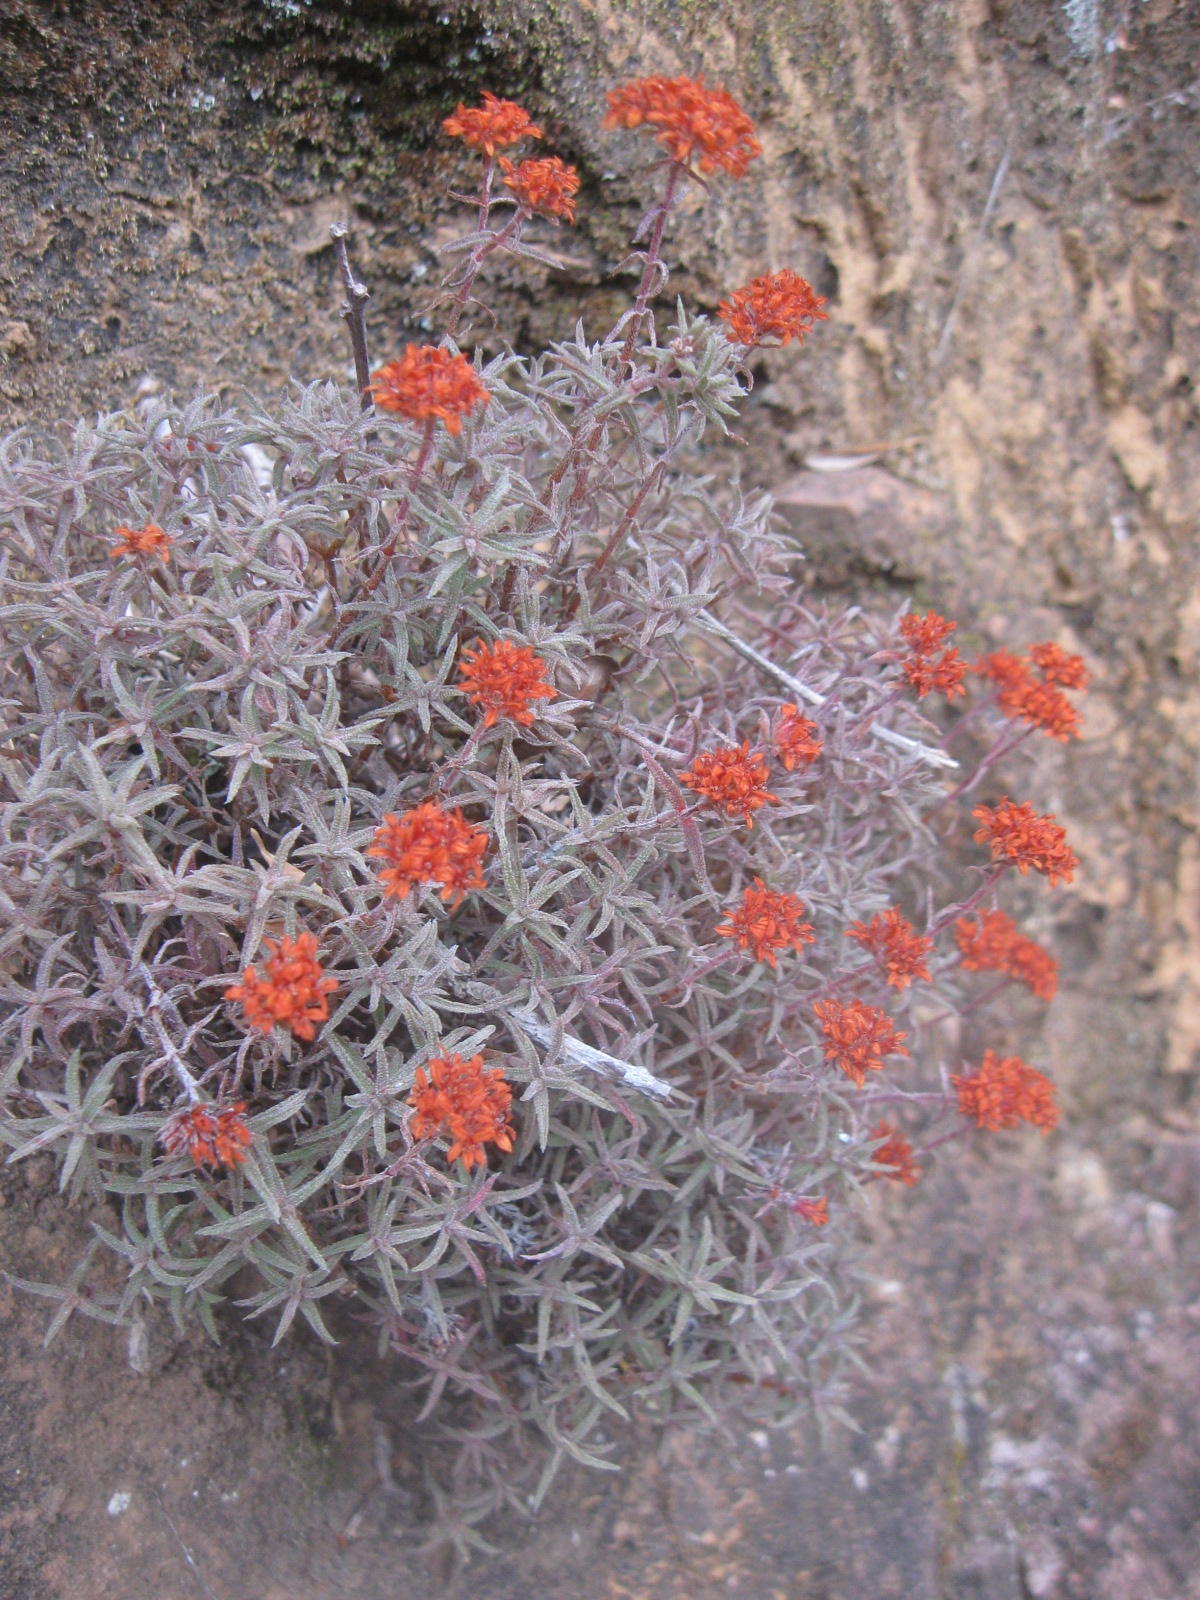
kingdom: Plantae
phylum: Tracheophyta
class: Magnoliopsida
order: Saxifragales
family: Crassulaceae
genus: Crassula
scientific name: Crassula pruinosa
